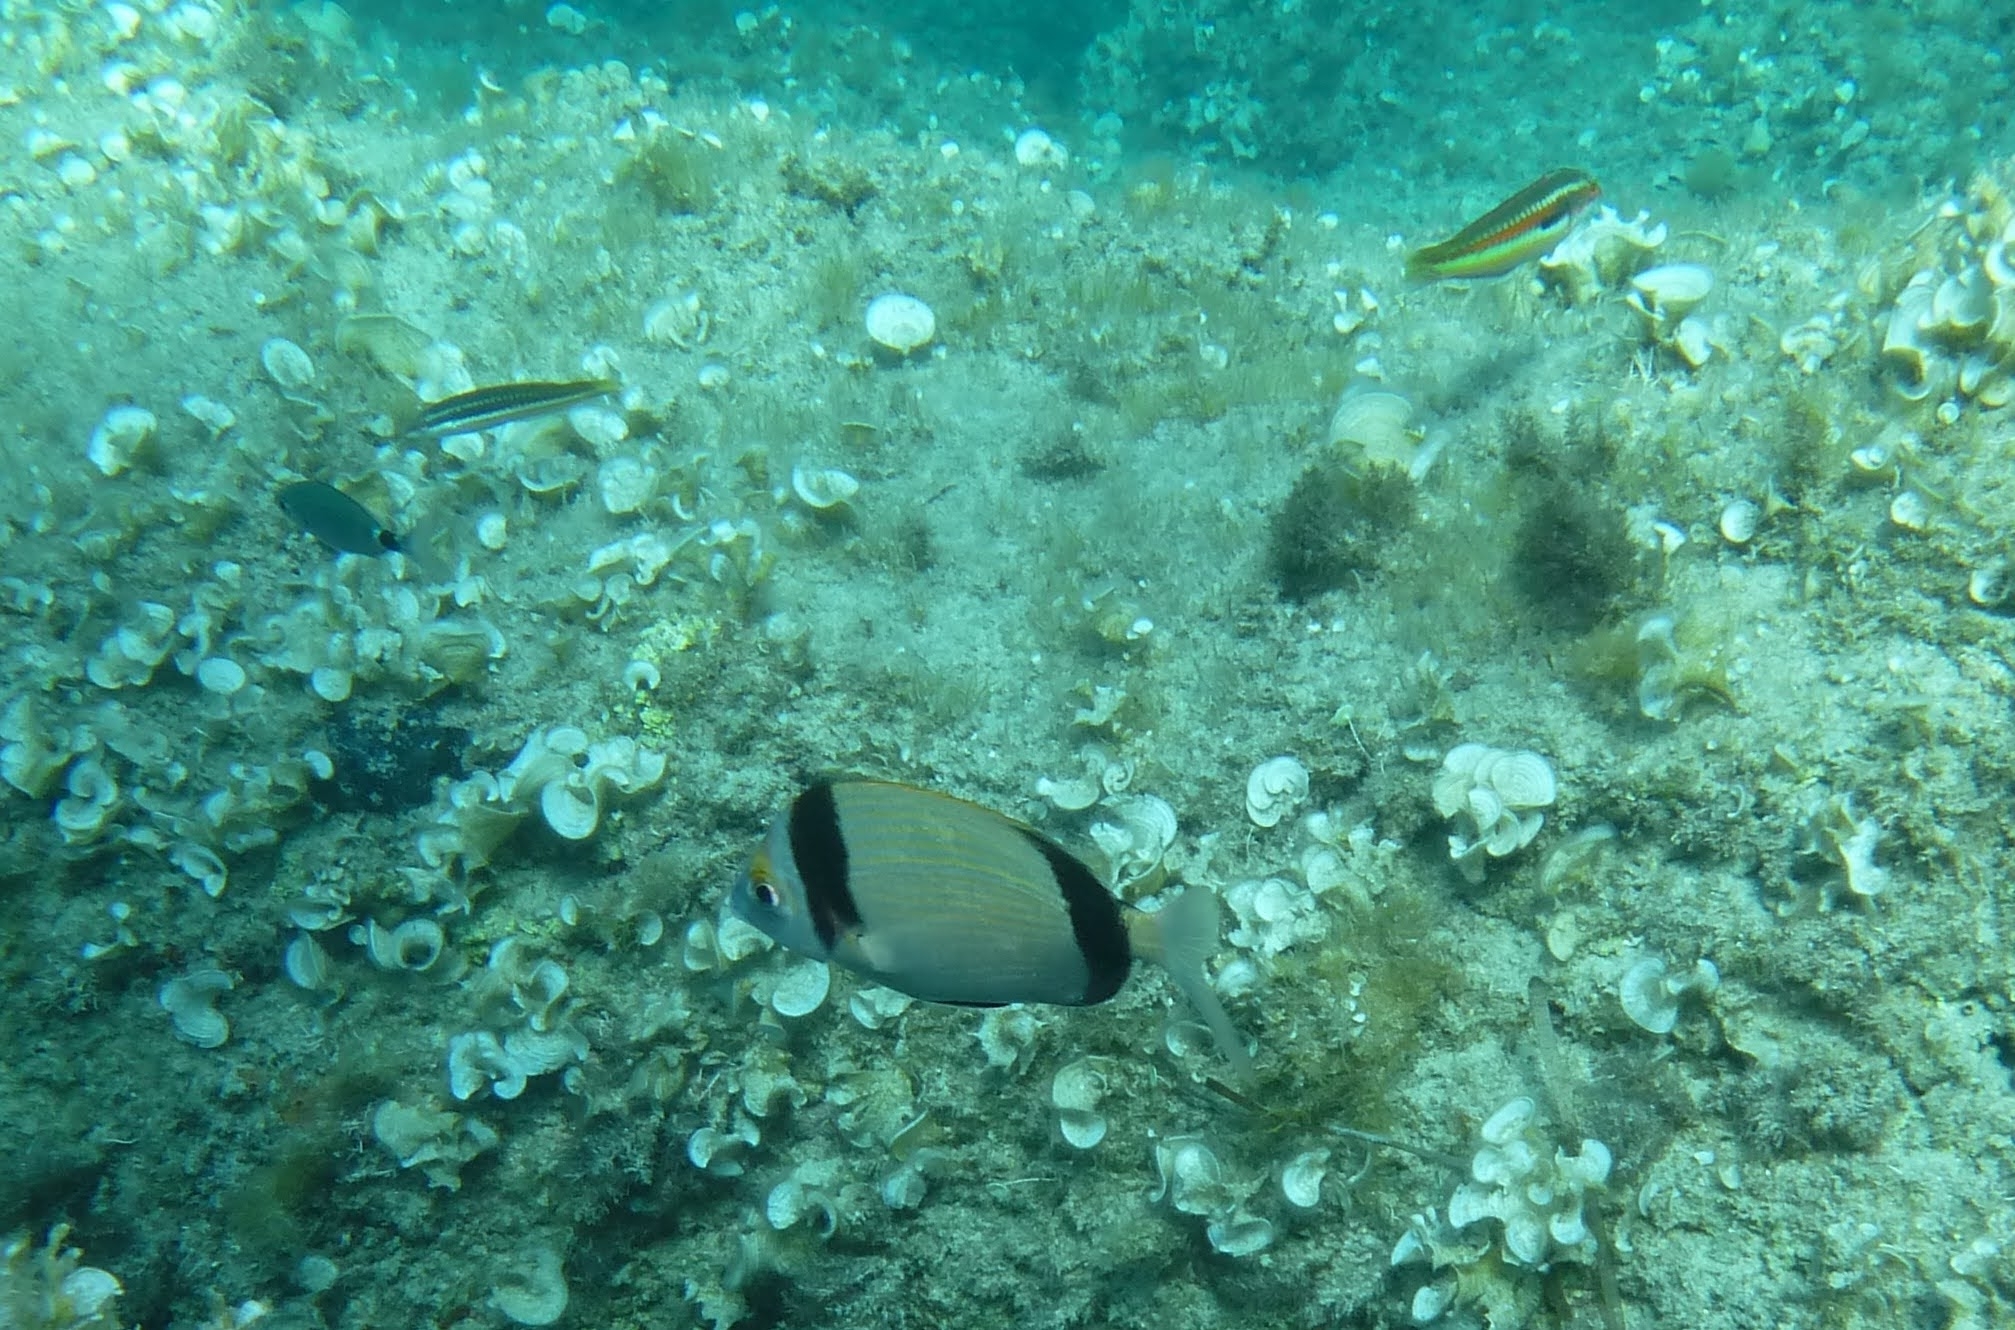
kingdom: Animalia
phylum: Chordata
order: Perciformes
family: Sparidae
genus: Diplodus
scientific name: Diplodus vulgaris
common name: Common two-banded seabream
